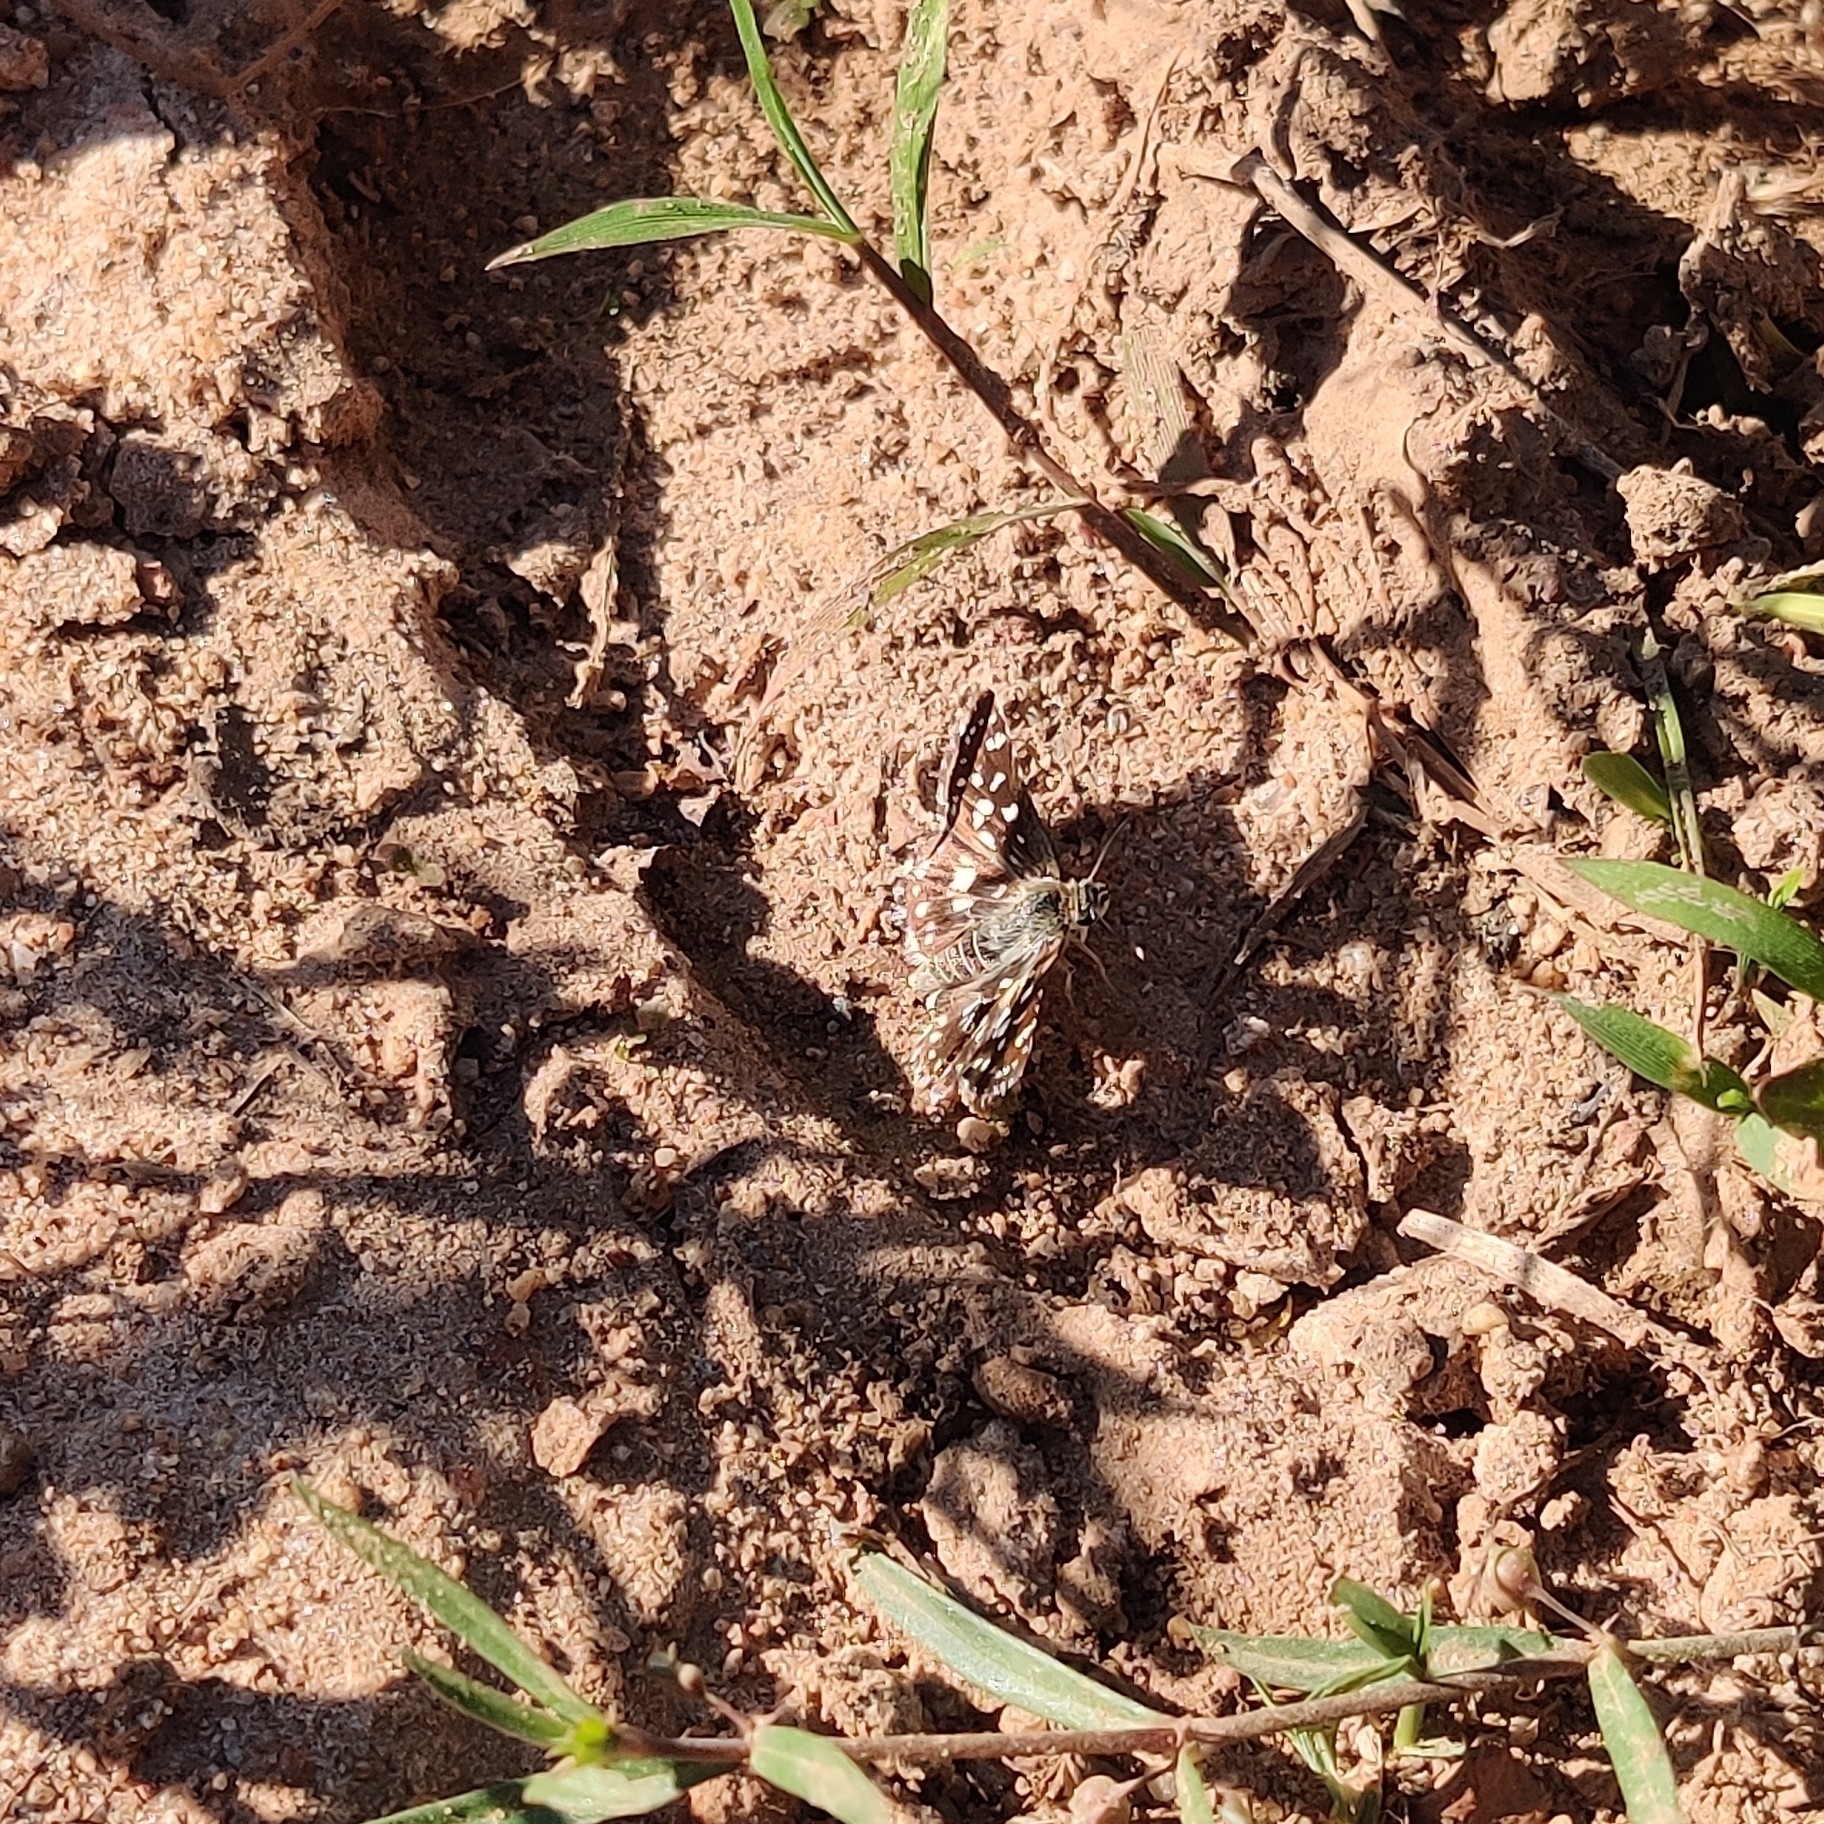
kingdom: Animalia
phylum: Arthropoda
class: Insecta
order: Lepidoptera
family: Hesperiidae
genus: Spialia
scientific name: Spialia galba
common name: Indian skipper
